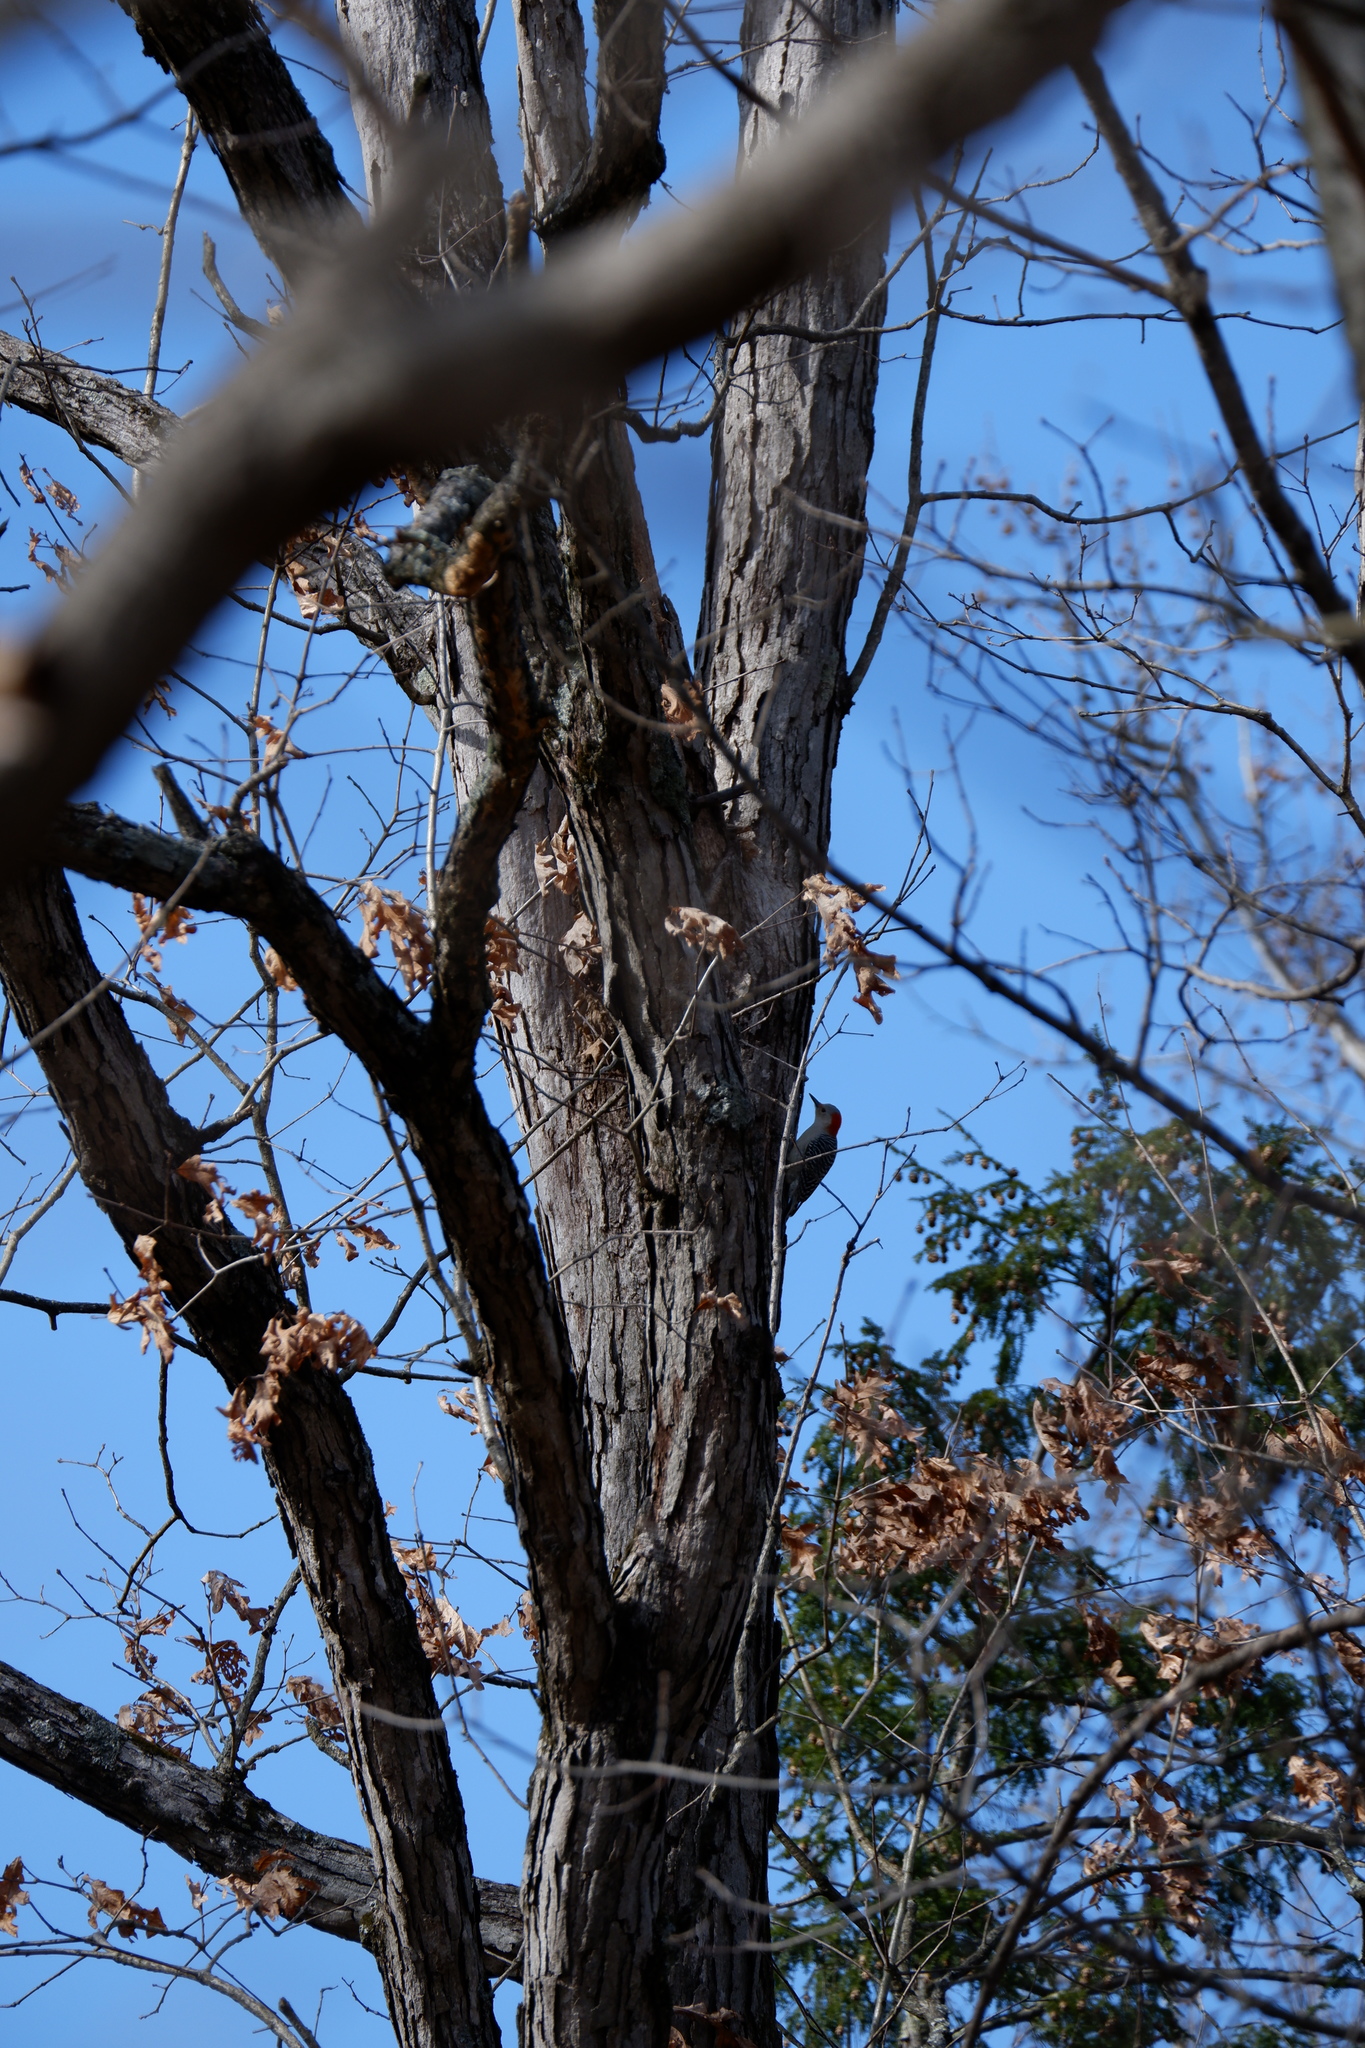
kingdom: Animalia
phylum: Chordata
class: Aves
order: Piciformes
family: Picidae
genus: Melanerpes
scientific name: Melanerpes carolinus
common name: Red-bellied woodpecker
